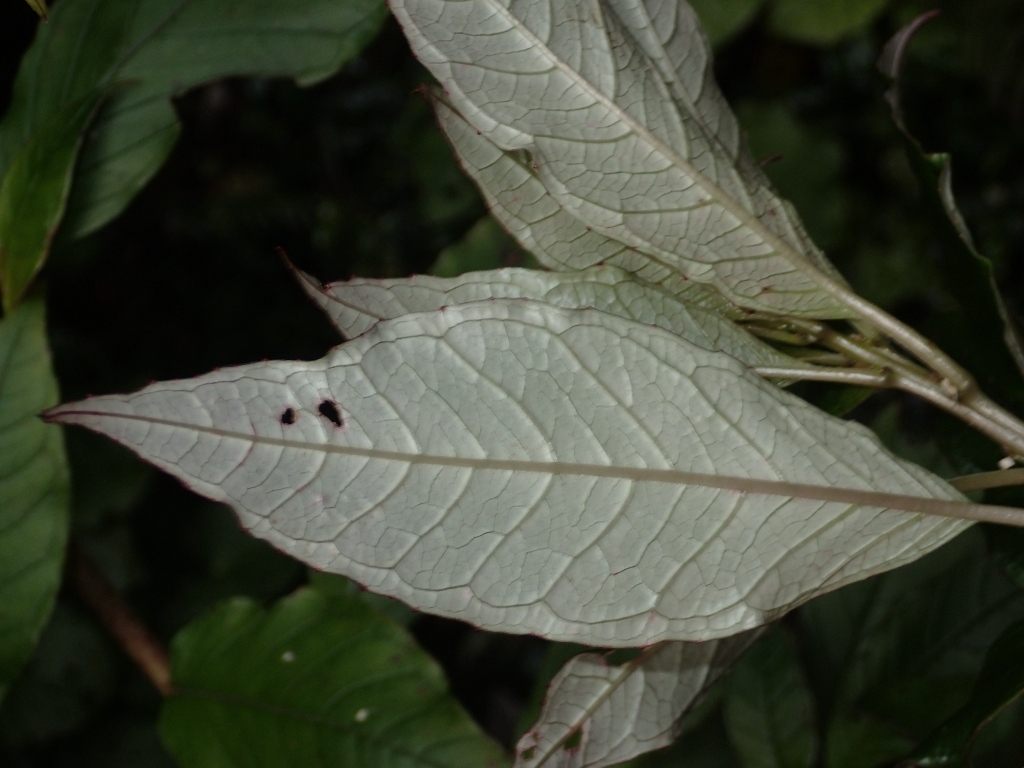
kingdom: Plantae
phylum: Tracheophyta
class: Magnoliopsida
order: Myrtales
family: Onagraceae
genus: Fuchsia
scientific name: Fuchsia excorticata
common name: Tree fuchsia
